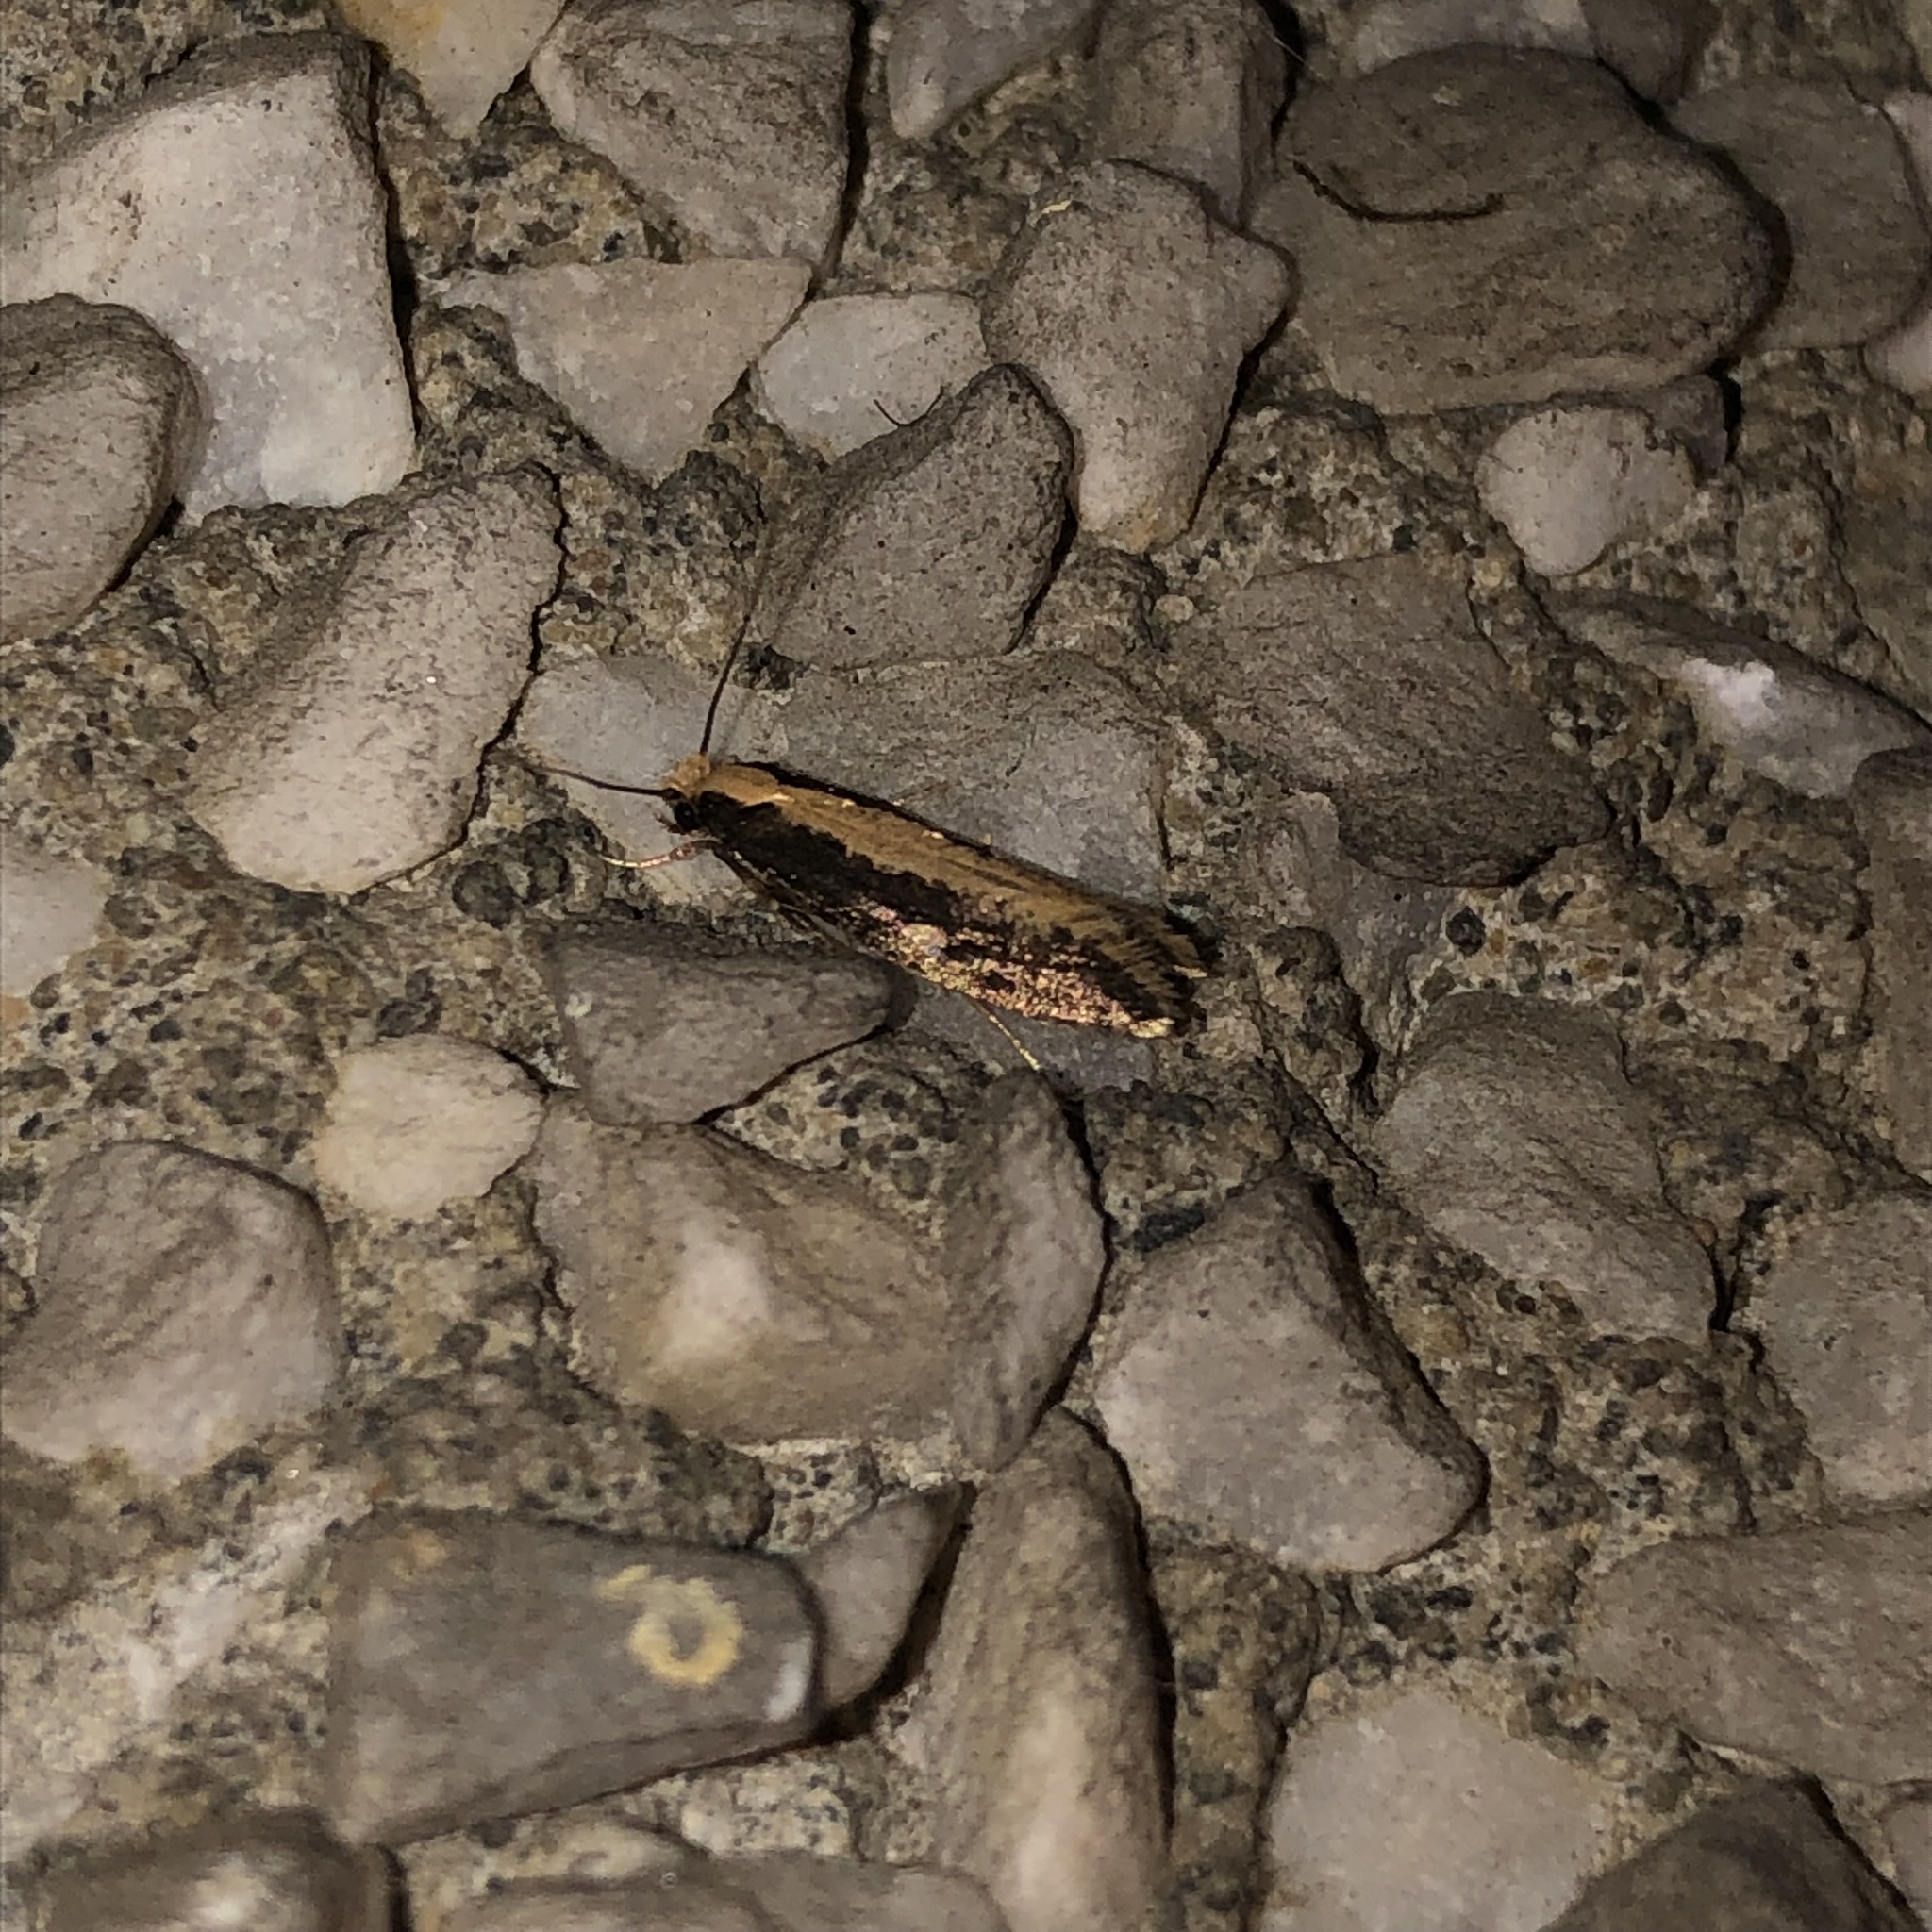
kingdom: Animalia
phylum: Arthropoda
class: Insecta
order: Lepidoptera
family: Tineidae
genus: Monopis
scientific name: Monopis crocicapitella
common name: Moth
